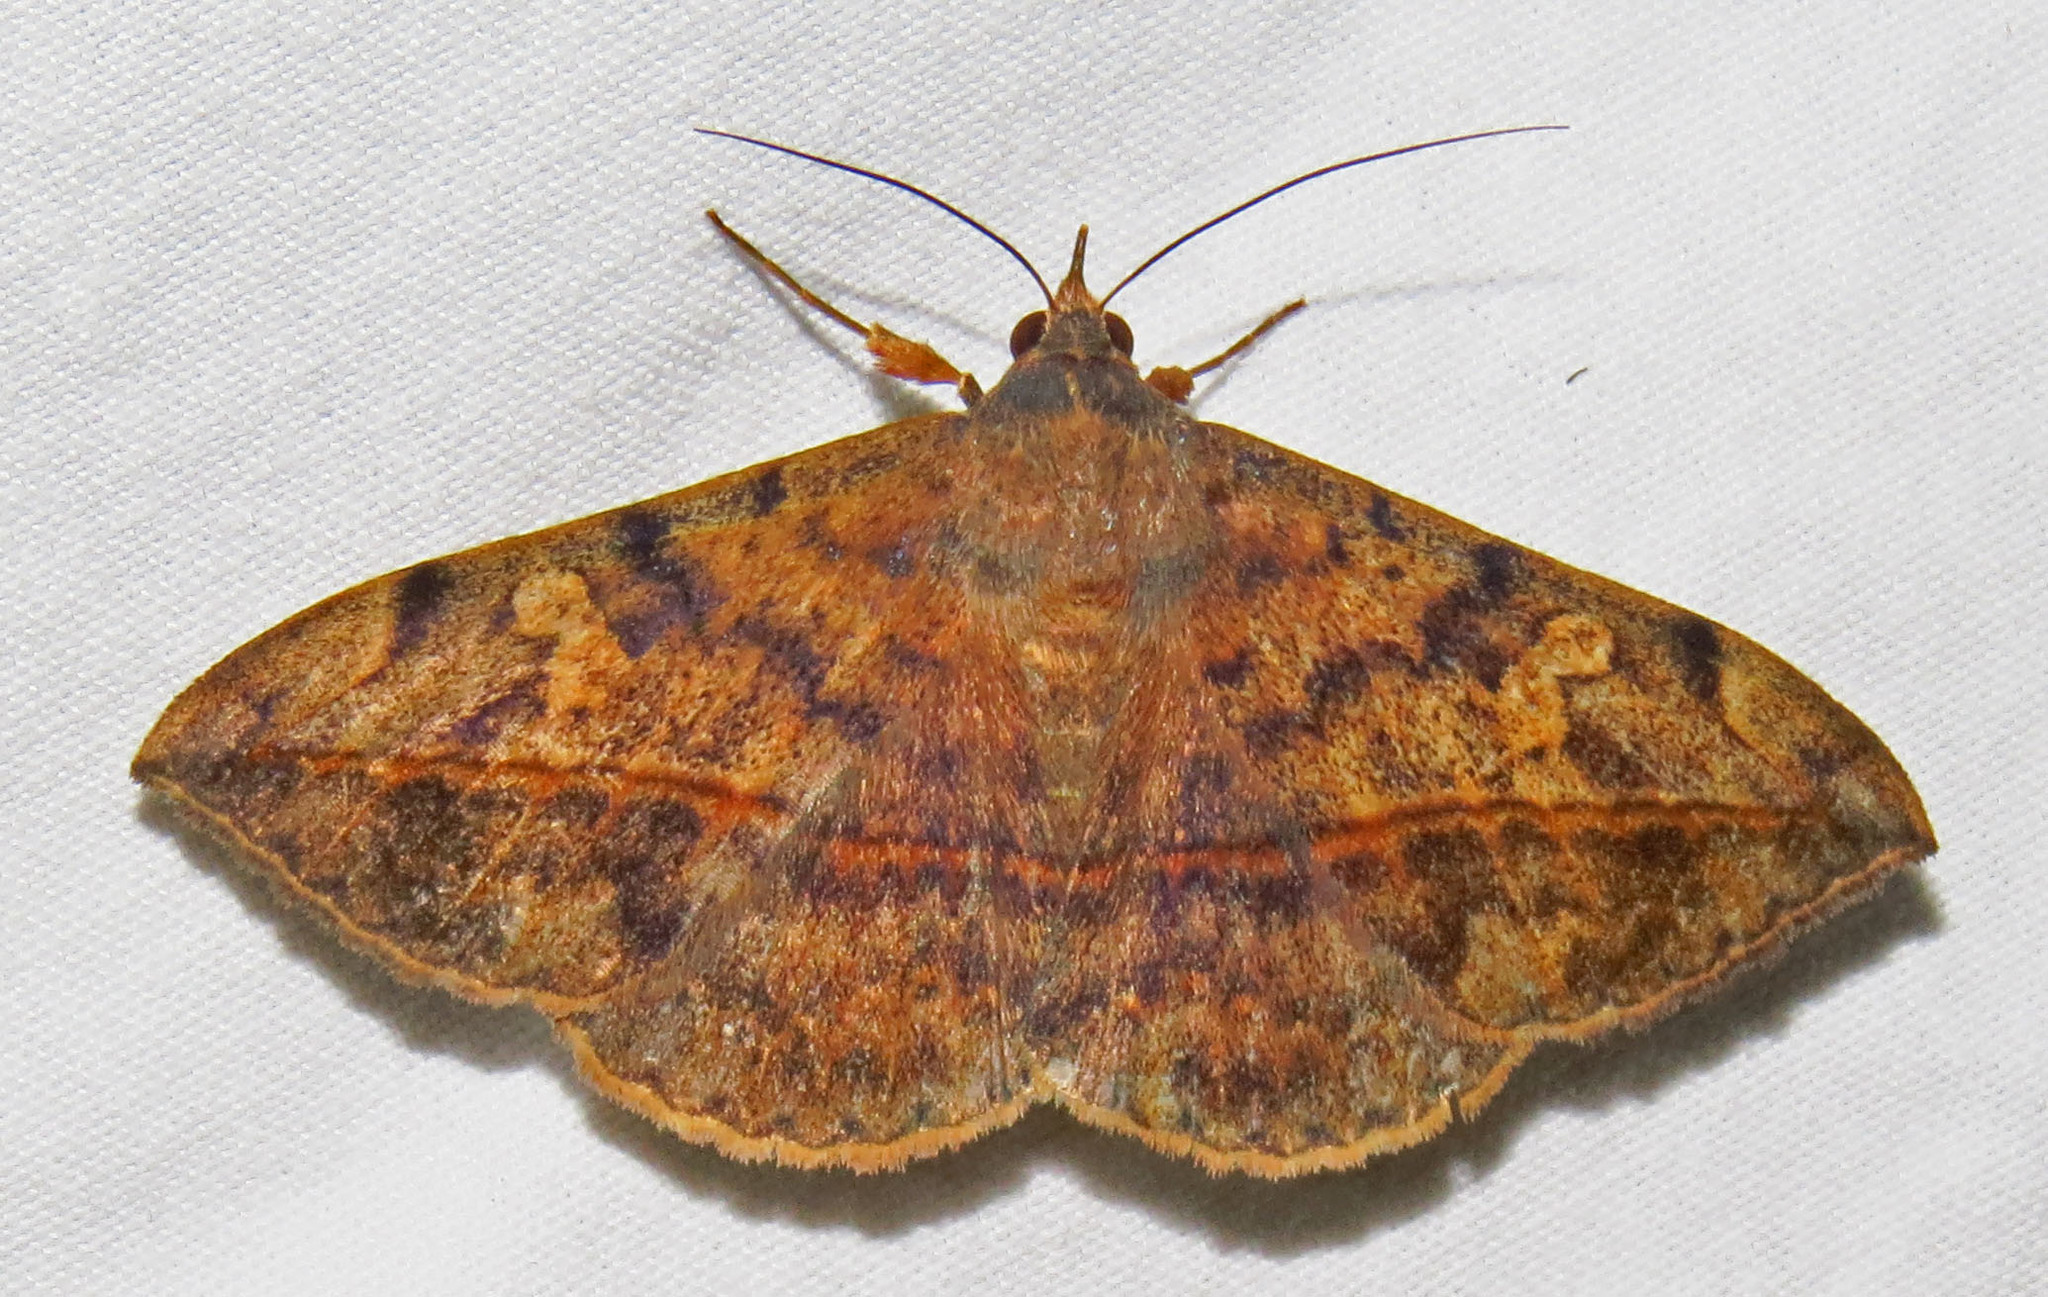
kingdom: Animalia
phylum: Arthropoda
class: Insecta
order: Lepidoptera
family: Erebidae
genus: Anticarsia
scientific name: Anticarsia gemmatalis
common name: Cutworm moth
